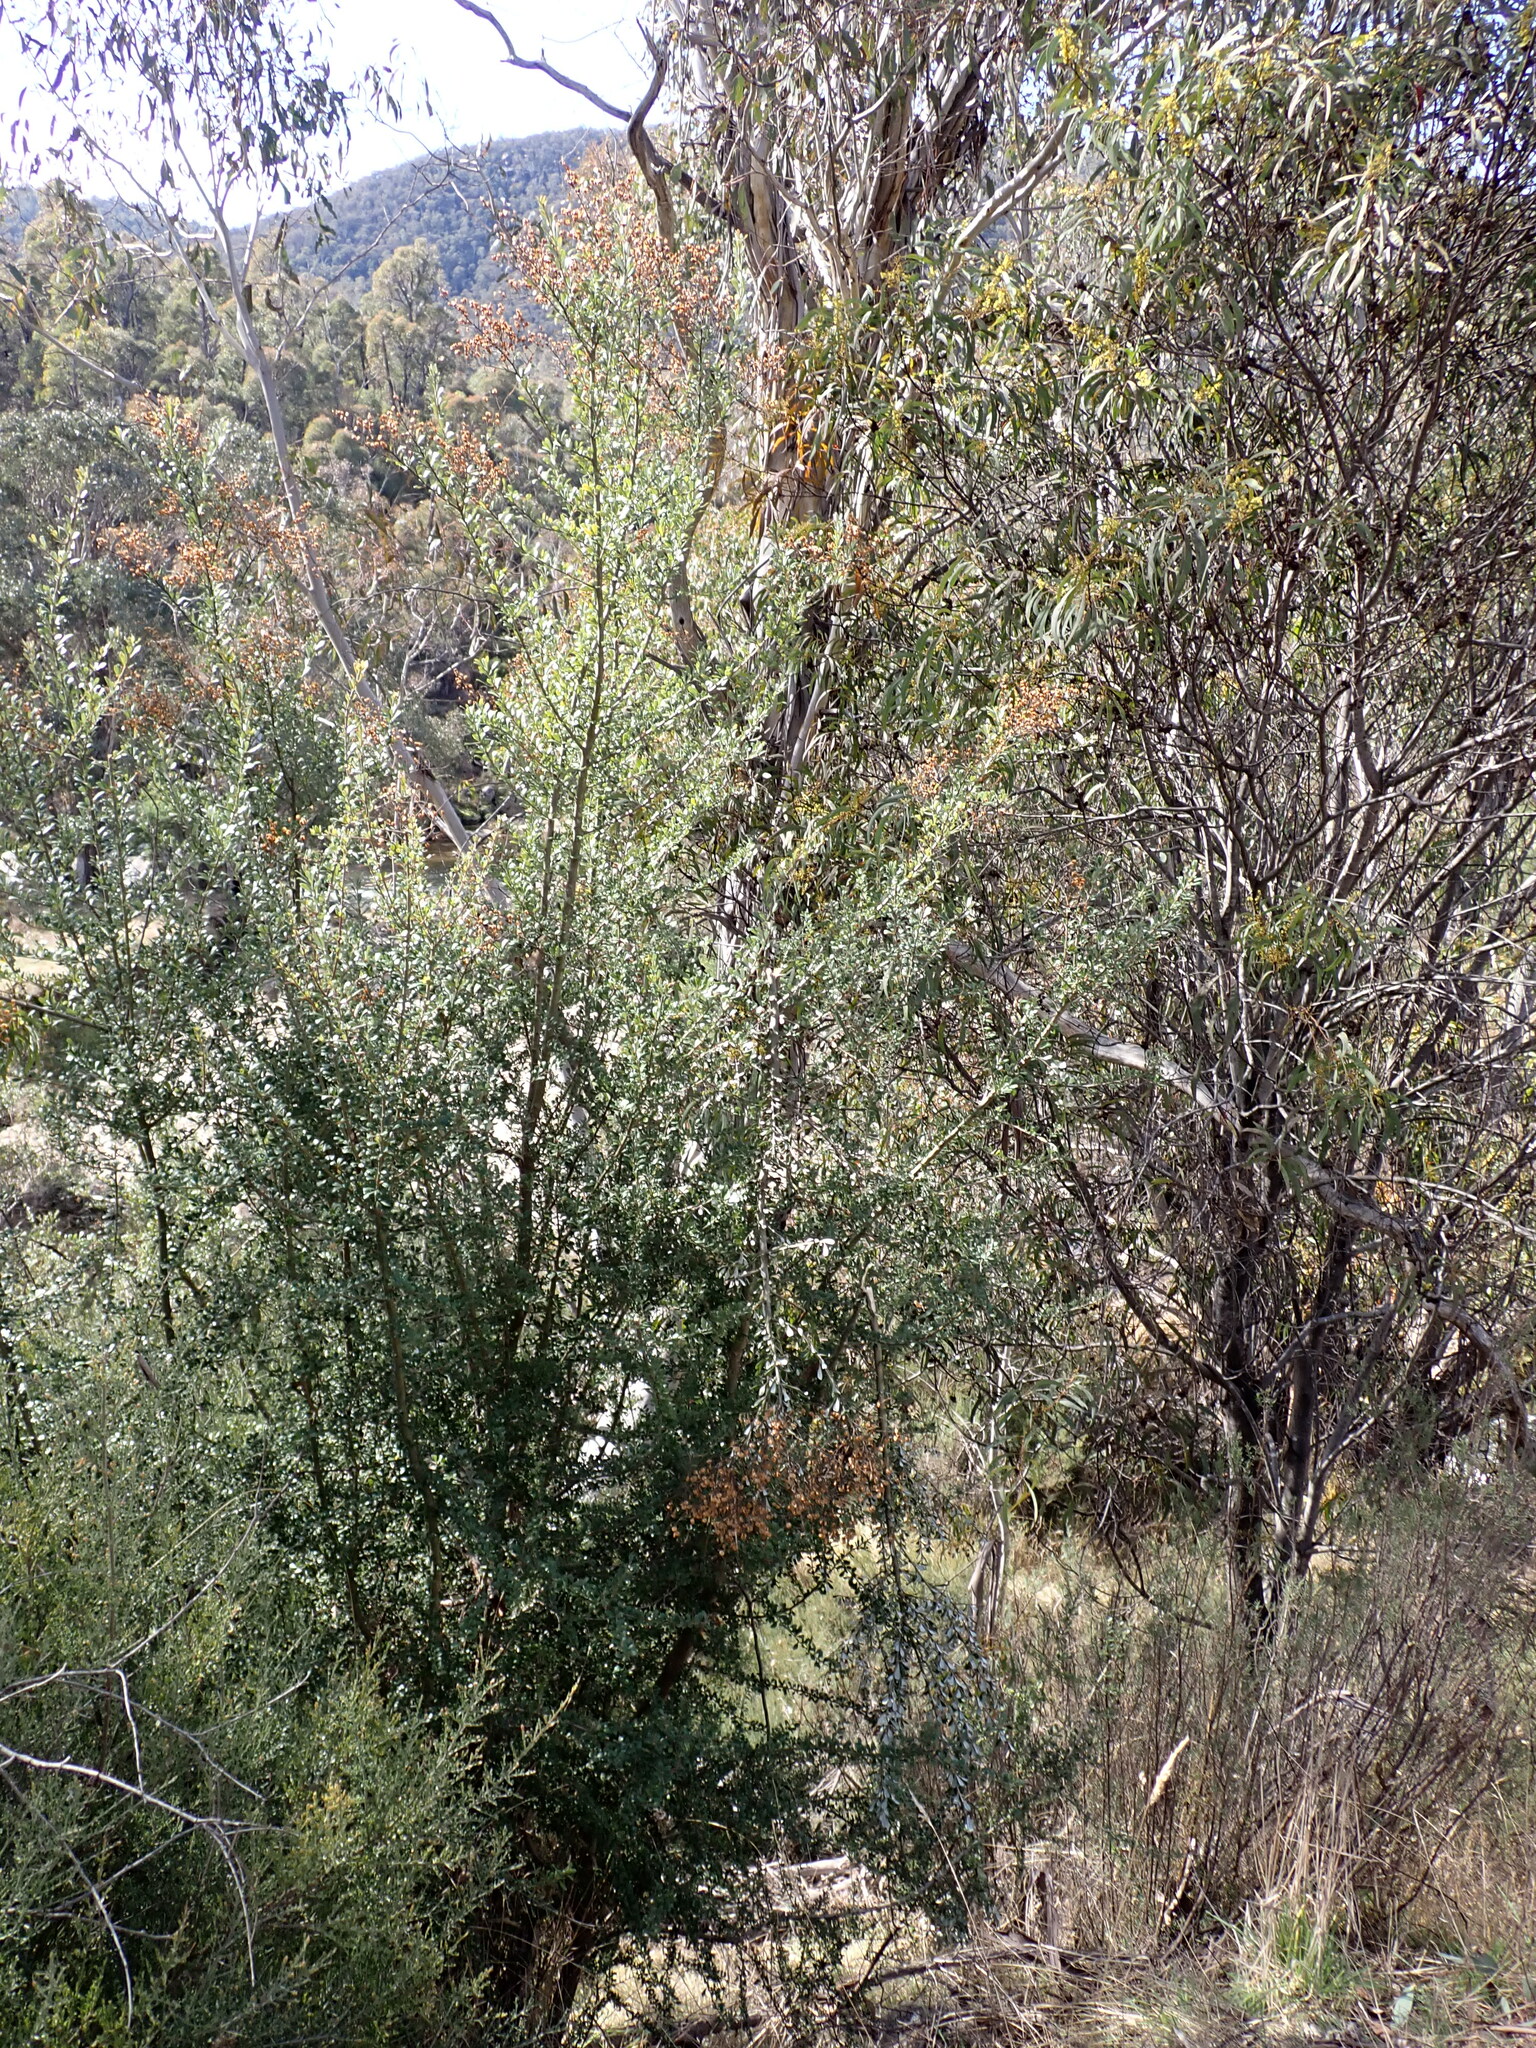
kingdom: Plantae
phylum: Tracheophyta
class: Magnoliopsida
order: Apiales
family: Pittosporaceae
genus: Bursaria
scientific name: Bursaria spinosa
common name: Australian blackthorn
